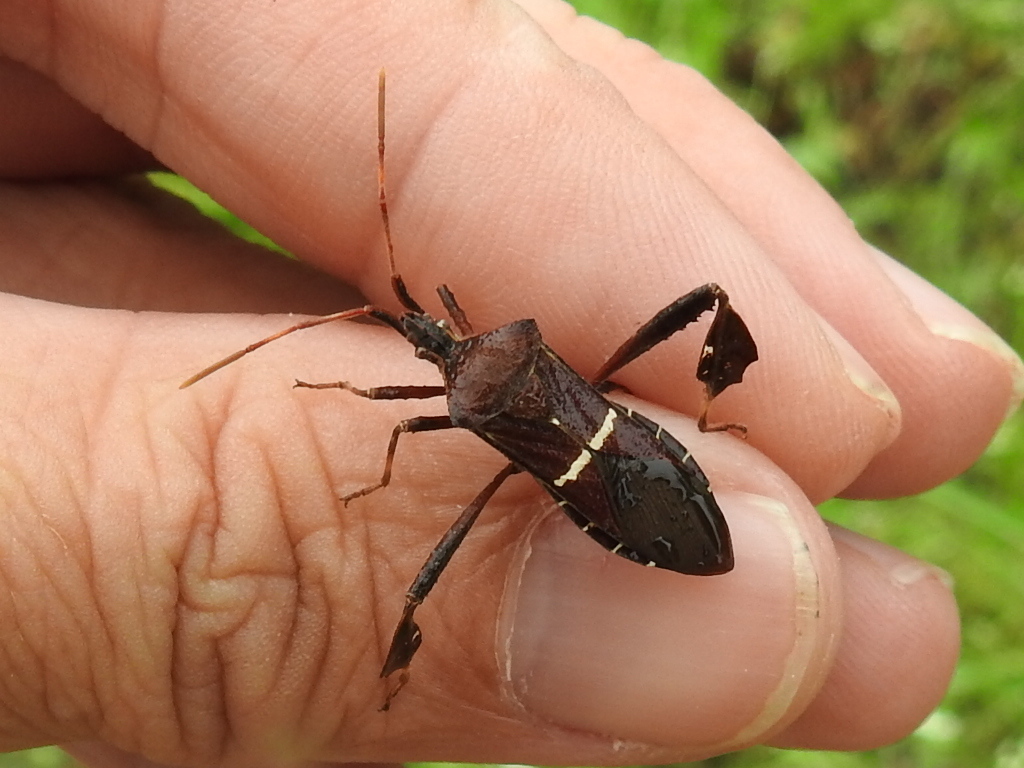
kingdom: Animalia
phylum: Arthropoda
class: Insecta
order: Hemiptera
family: Coreidae
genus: Leptoglossus
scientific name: Leptoglossus phyllopus
